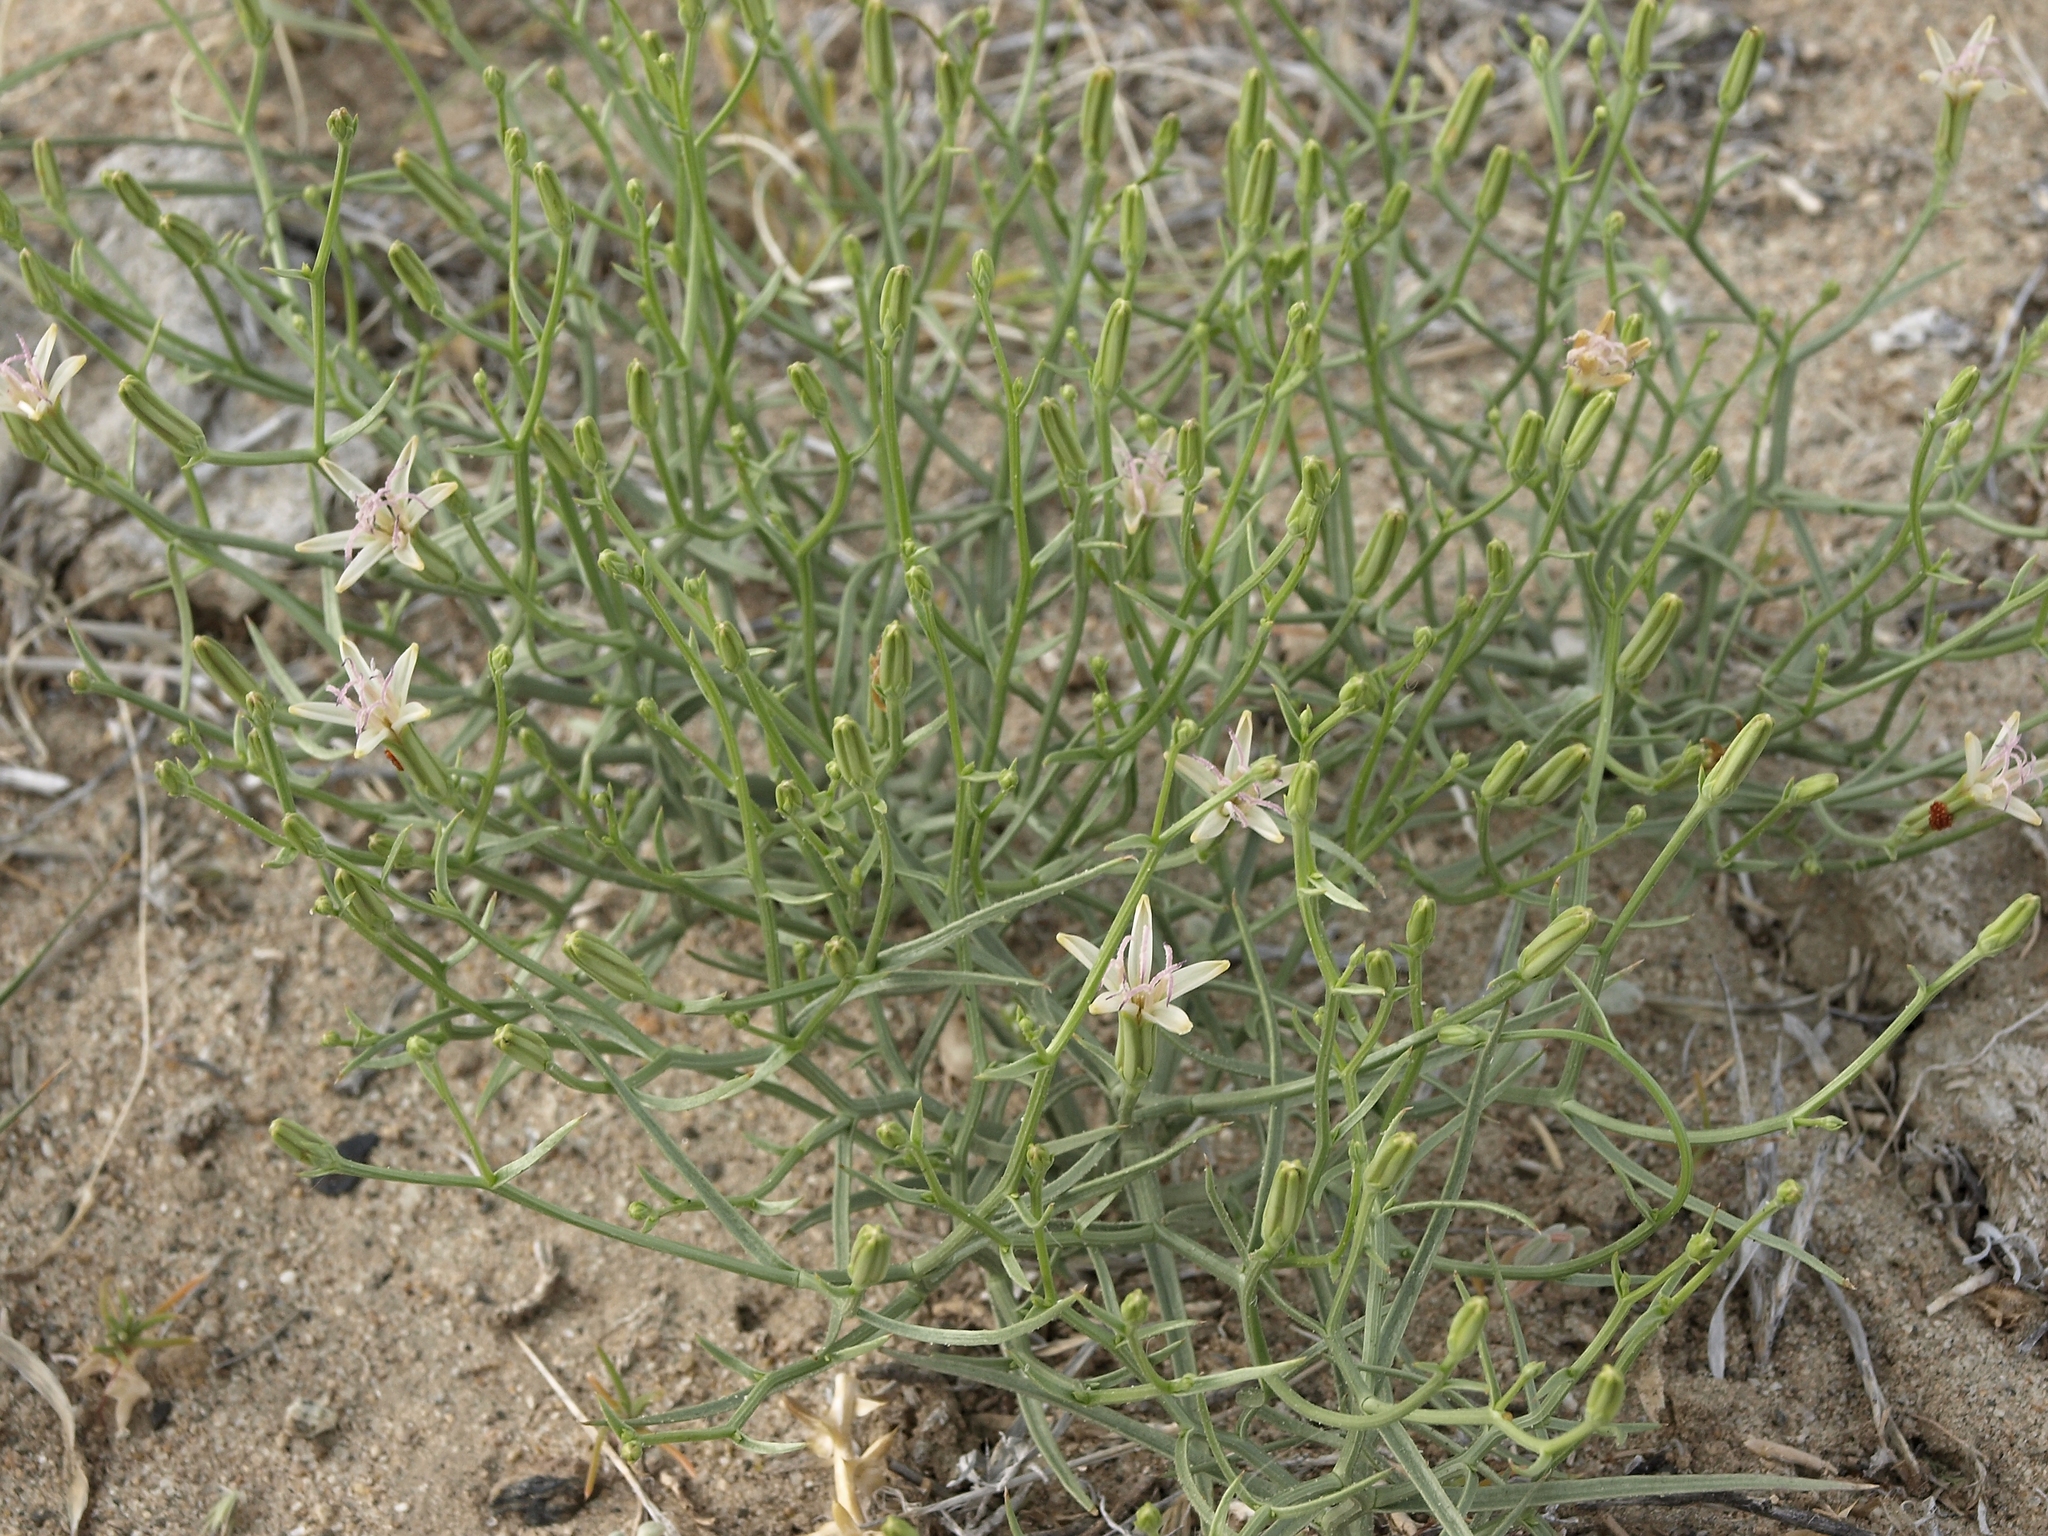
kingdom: Plantae
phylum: Tracheophyta
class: Magnoliopsida
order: Asterales
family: Asteraceae
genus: Chaetadelpha
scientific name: Chaetadelpha wheeleri
